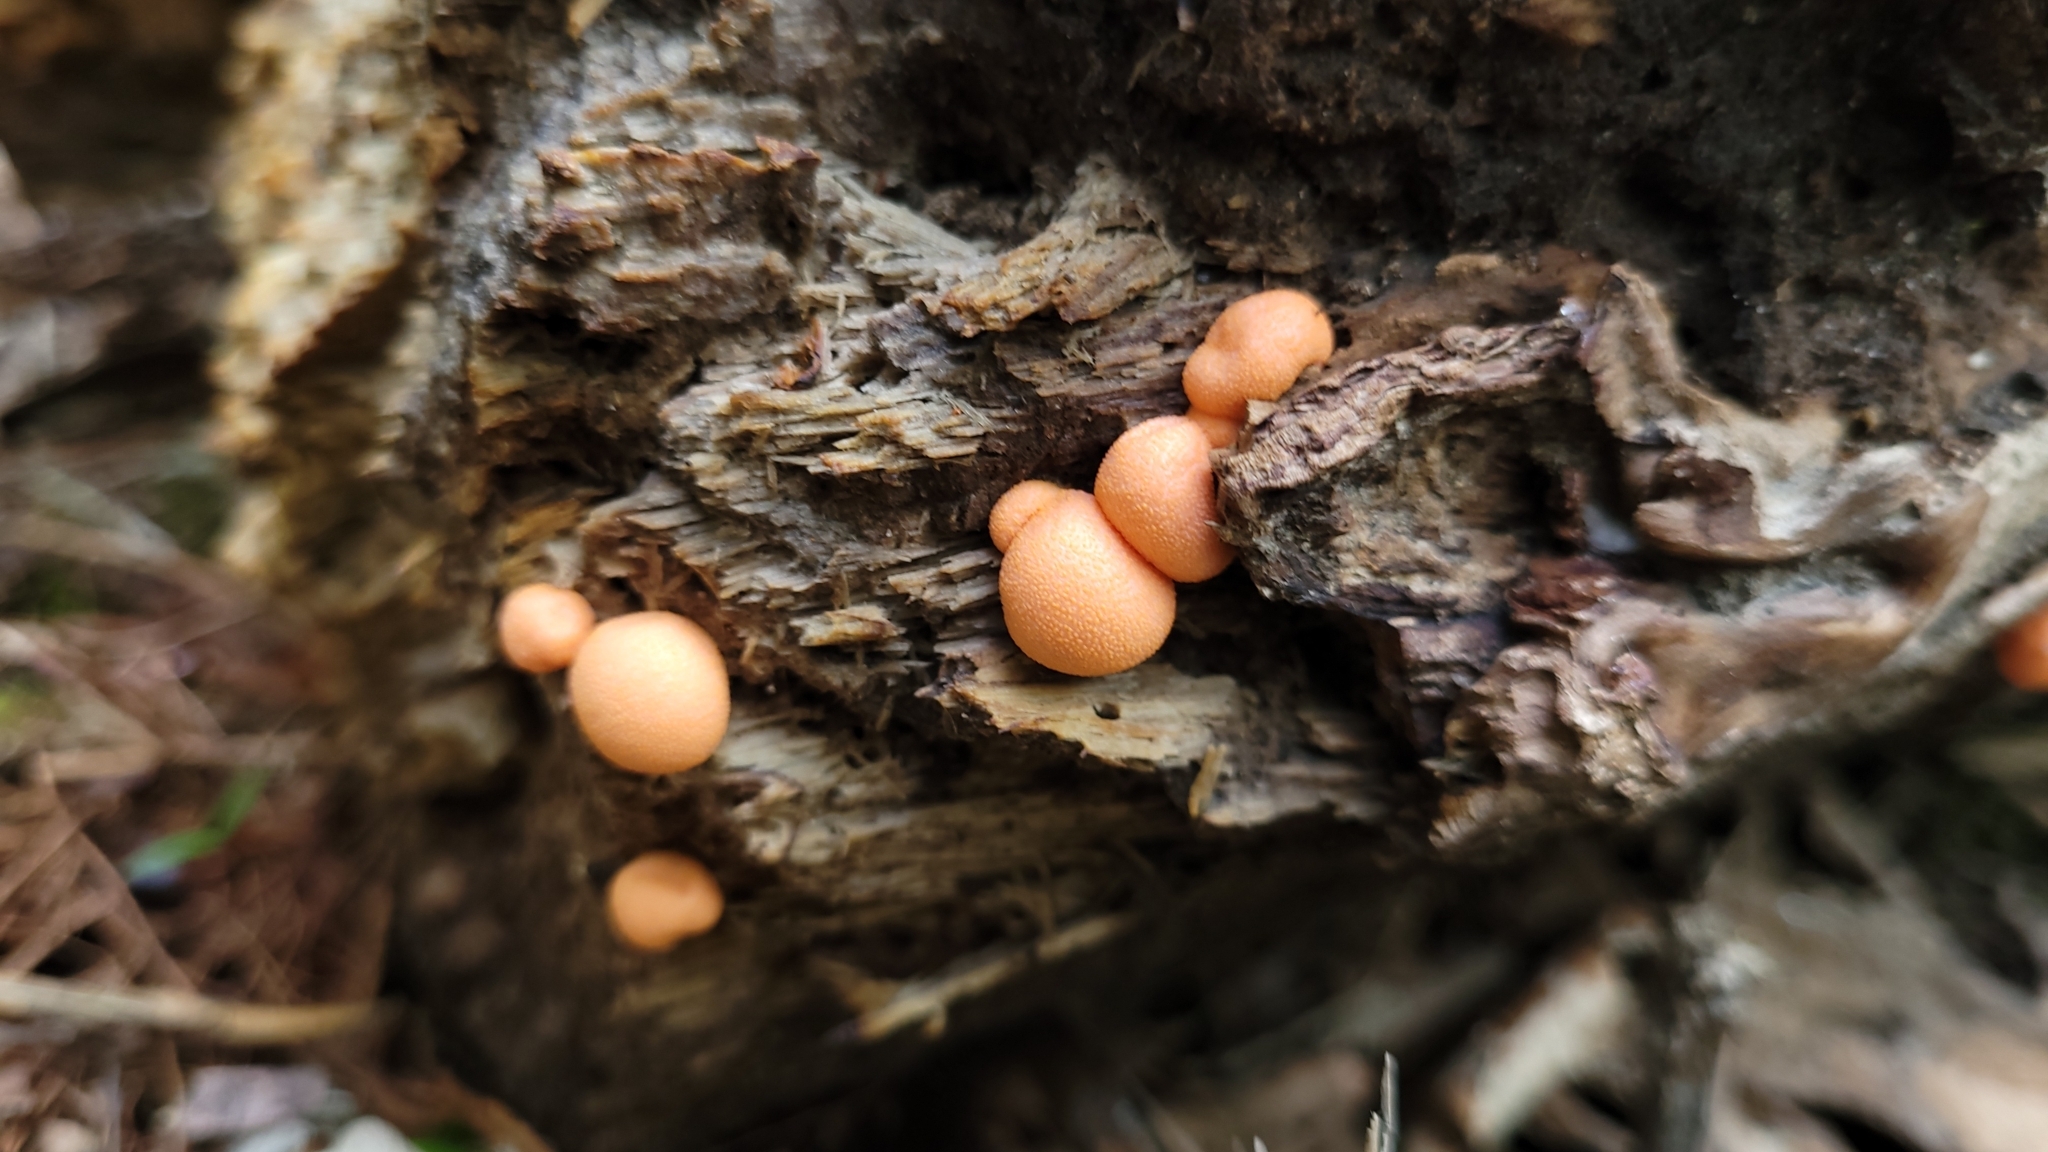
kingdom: Protozoa
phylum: Mycetozoa
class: Myxomycetes
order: Cribrariales
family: Tubiferaceae
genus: Lycogala
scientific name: Lycogala epidendrum
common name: Wolf's milk
